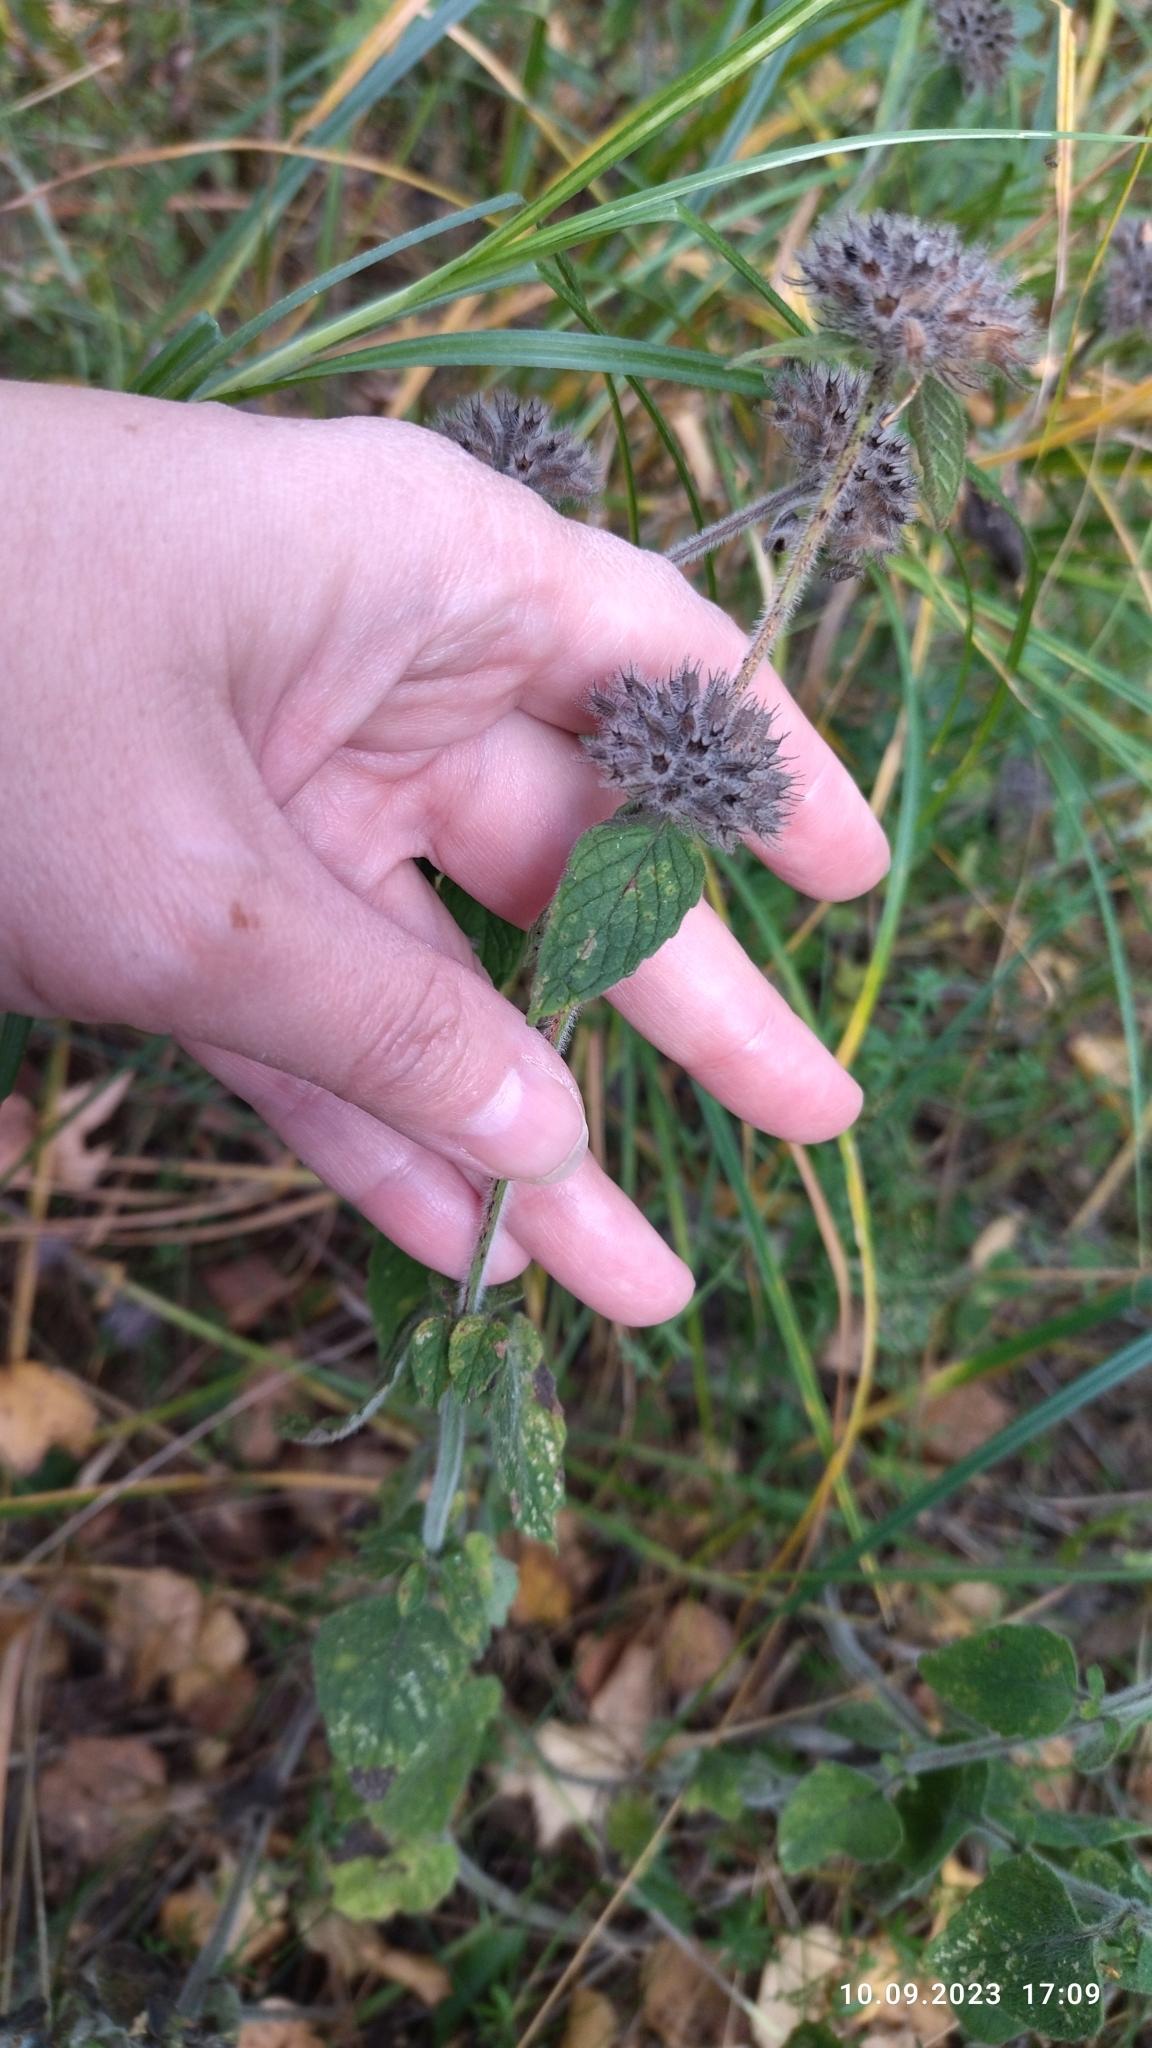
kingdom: Plantae
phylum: Tracheophyta
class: Magnoliopsida
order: Lamiales
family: Lamiaceae
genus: Clinopodium
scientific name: Clinopodium vulgare
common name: Wild basil
